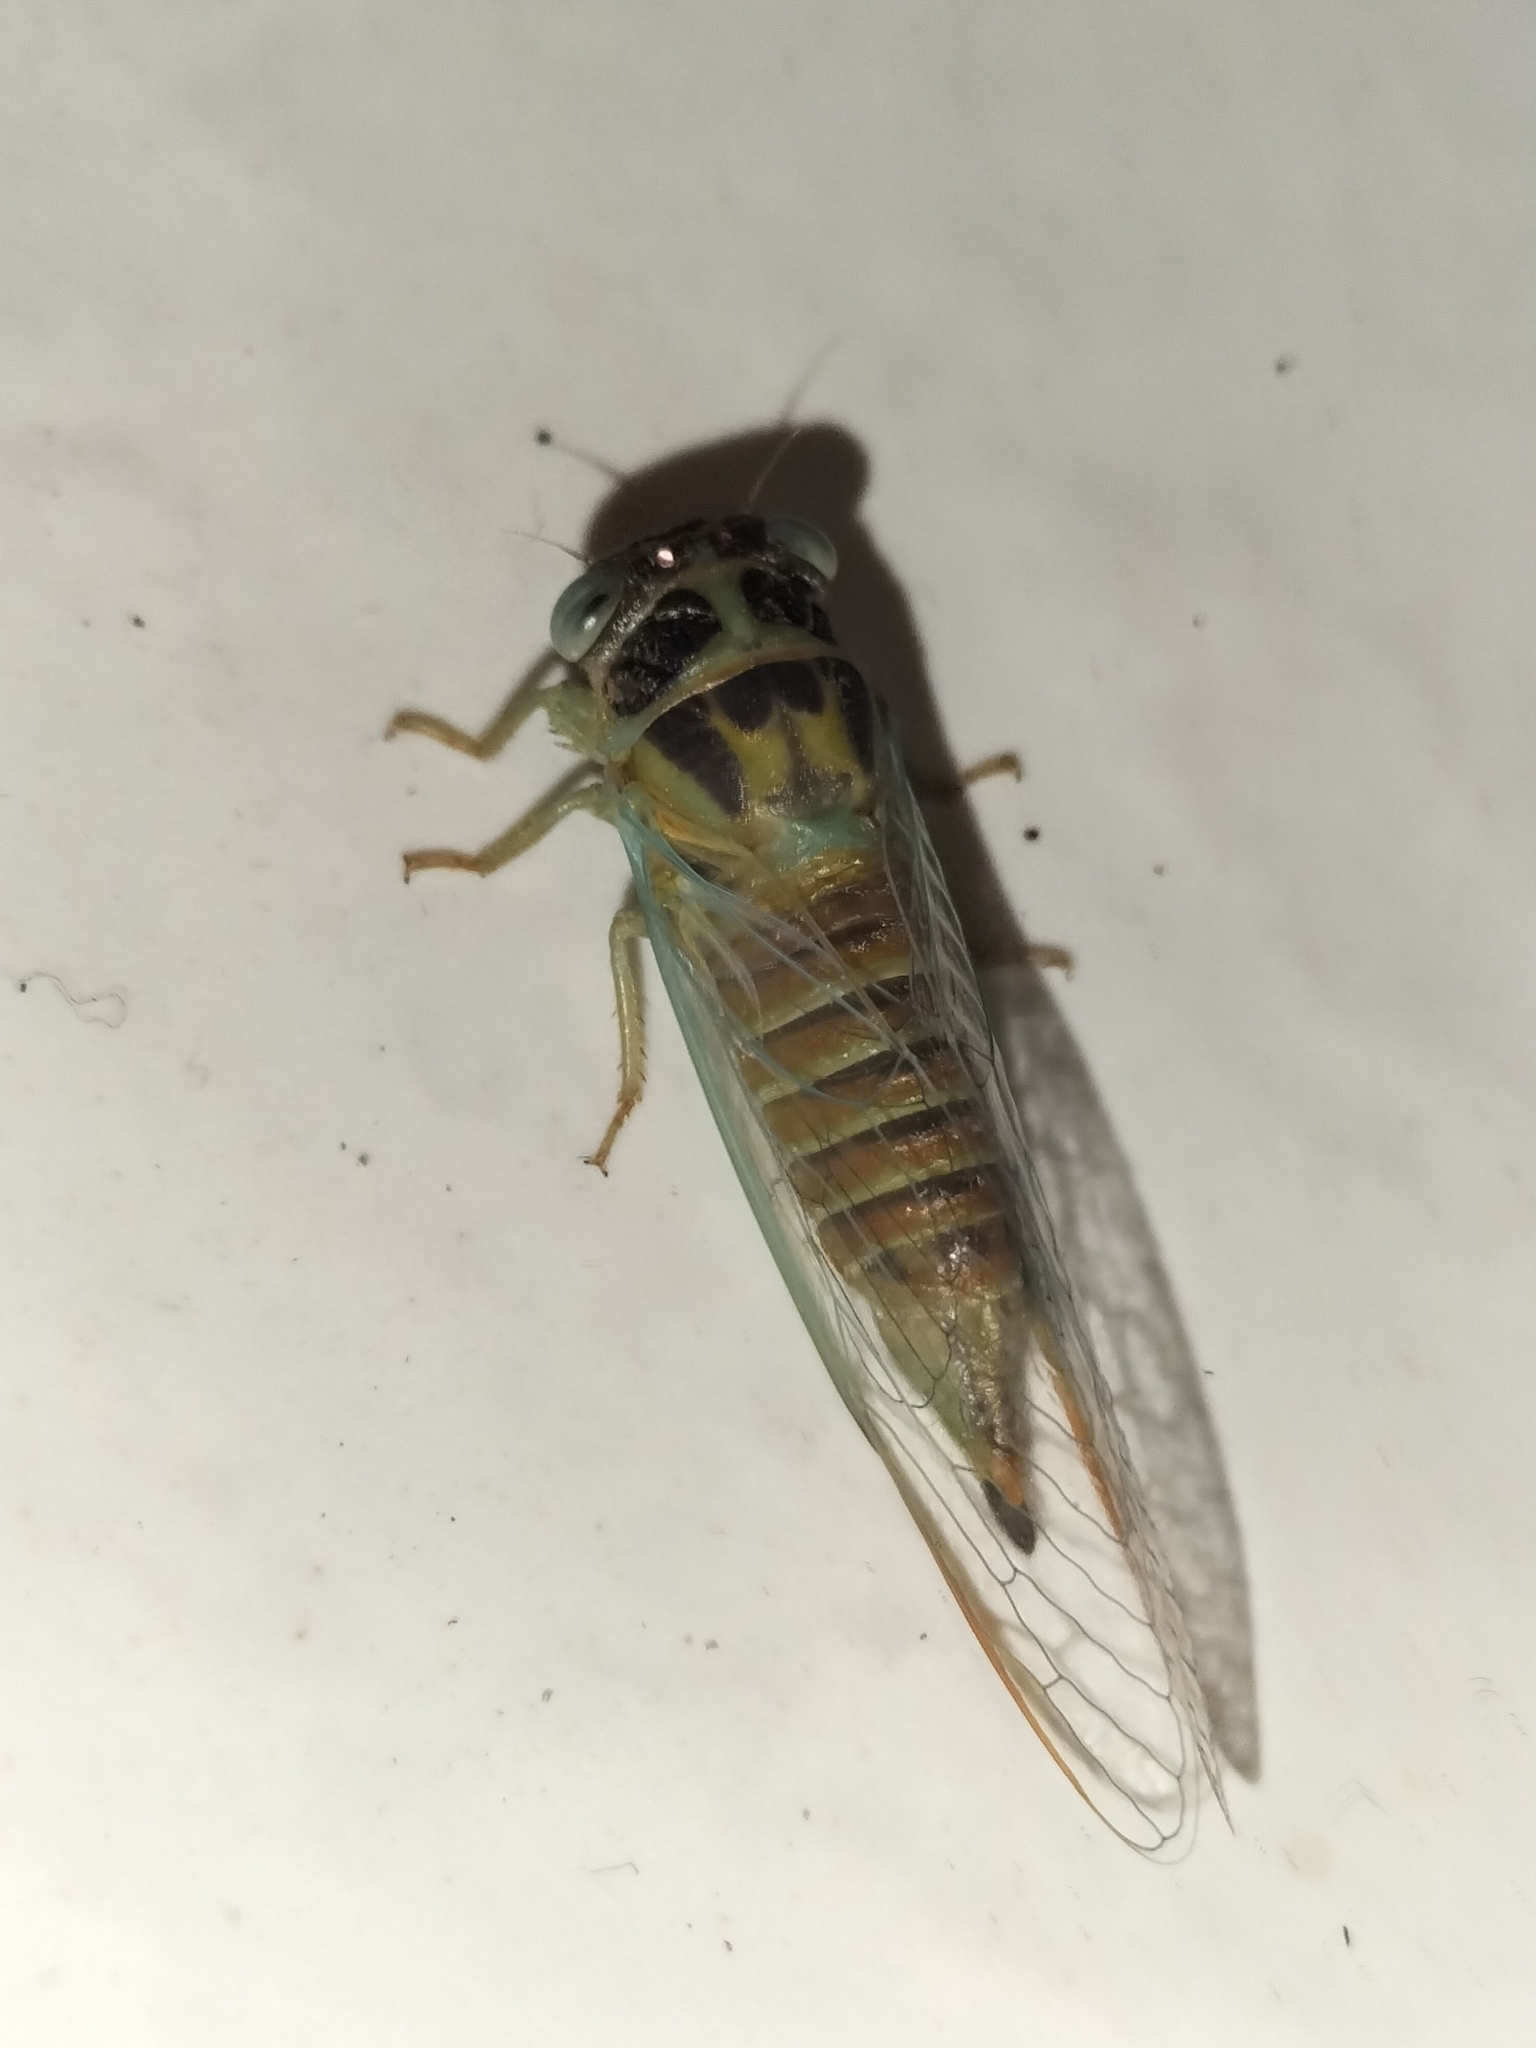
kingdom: Animalia
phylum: Arthropoda
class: Insecta
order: Hemiptera
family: Cicadidae
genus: Palapsalta
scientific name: Palapsalta eyrei
